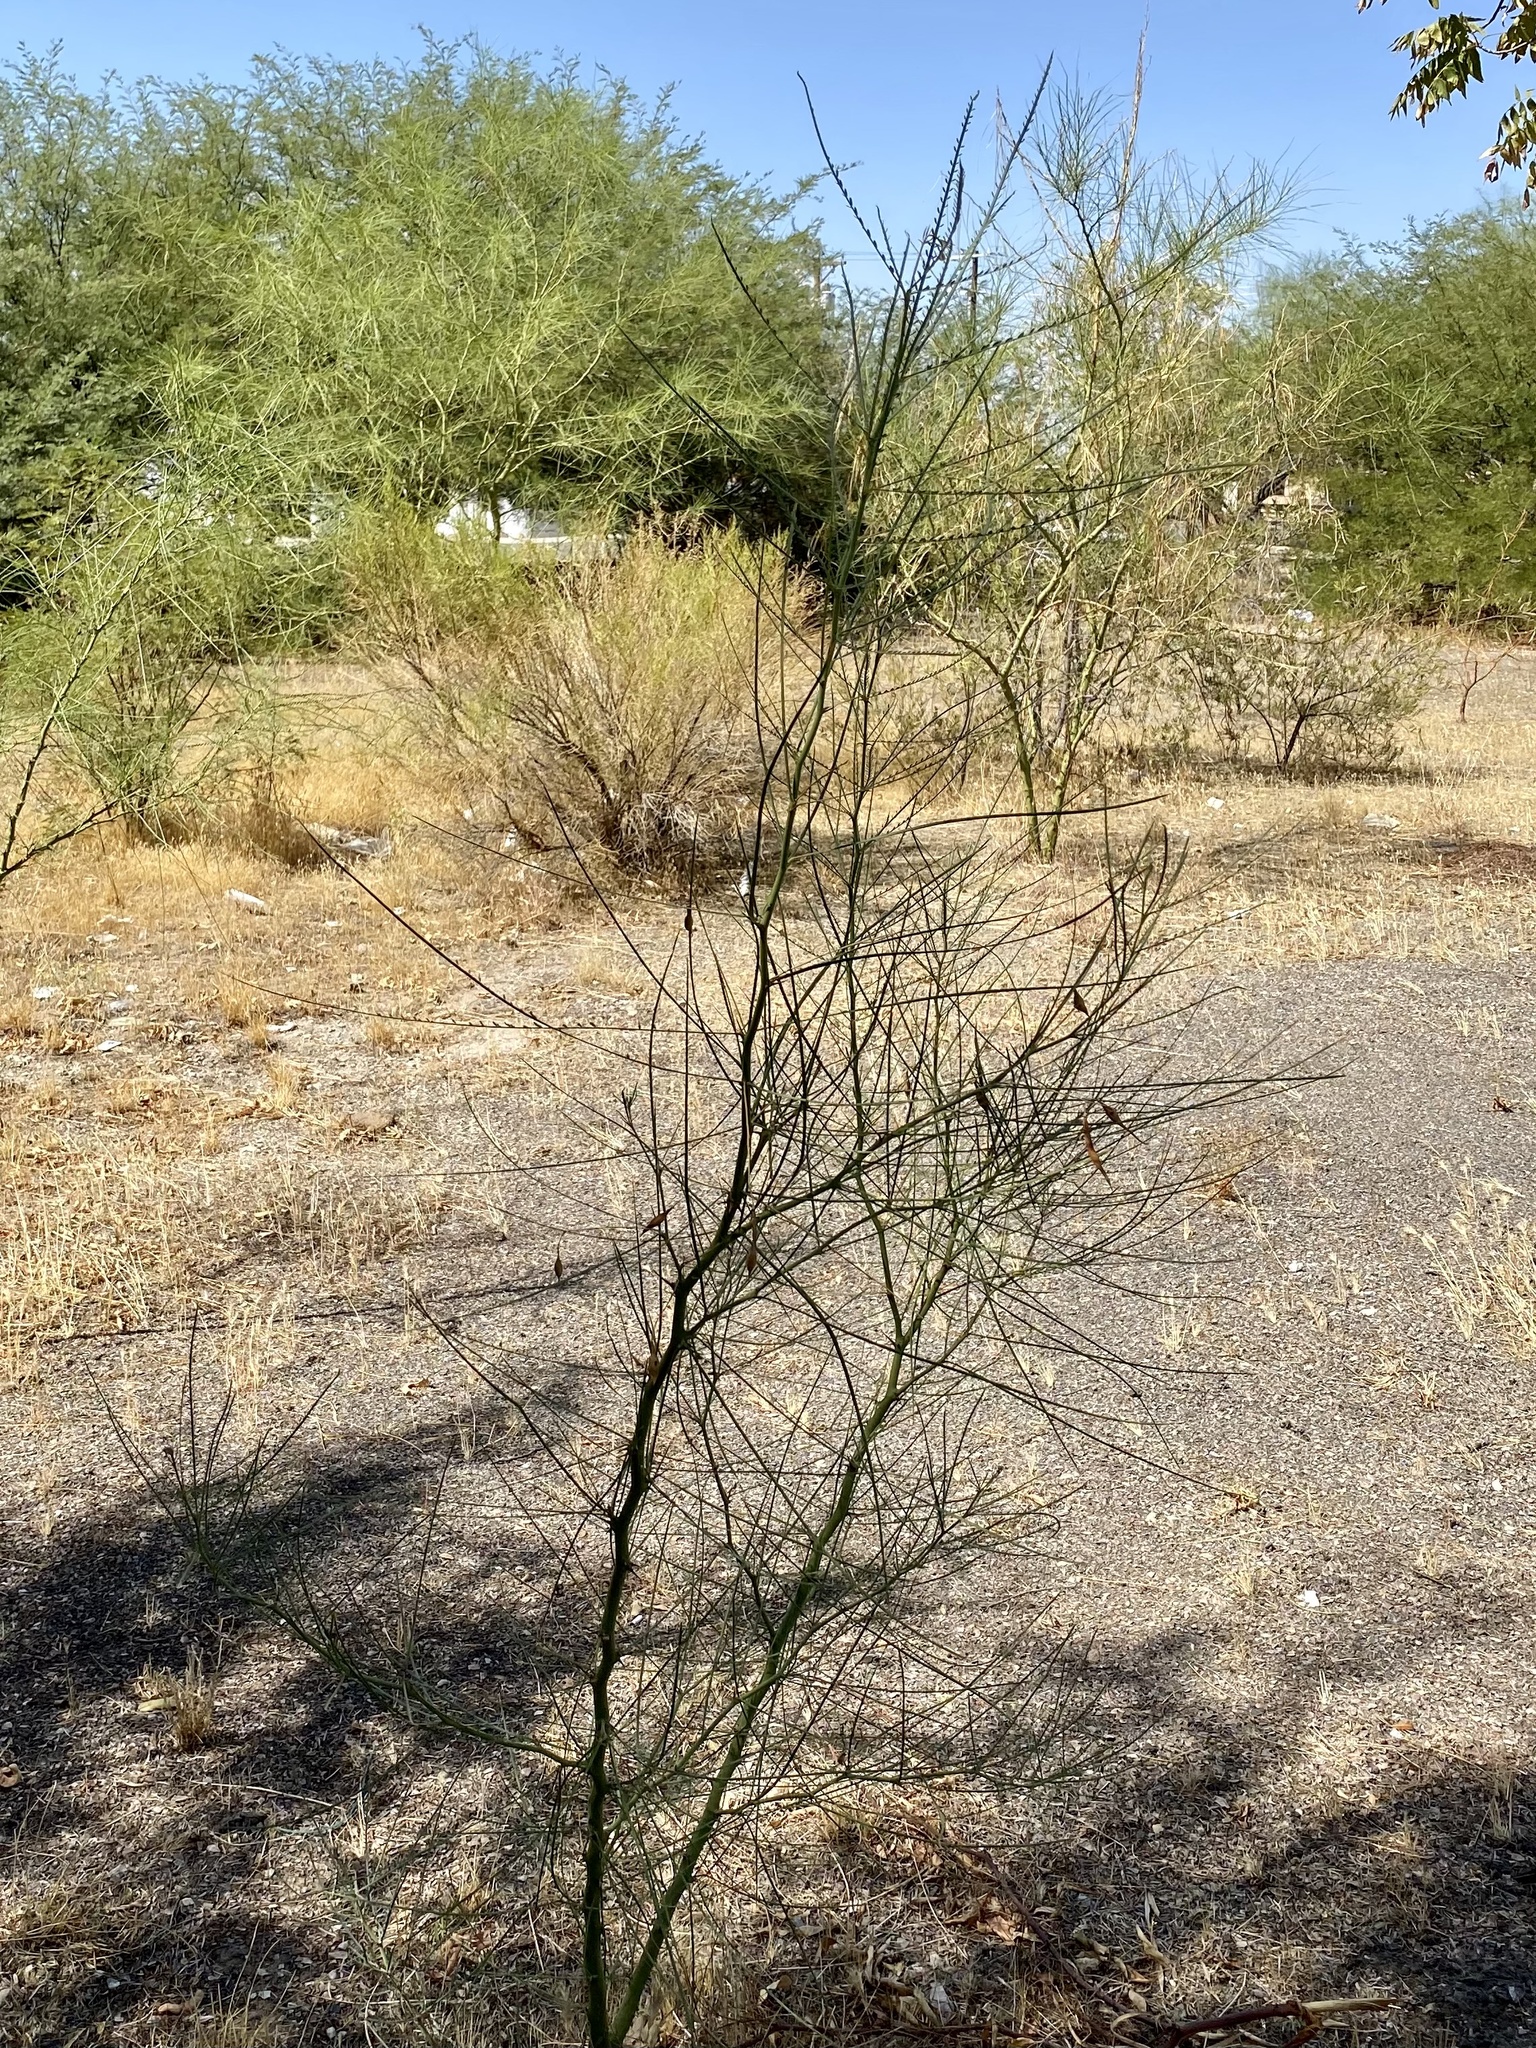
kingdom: Plantae
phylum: Tracheophyta
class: Magnoliopsida
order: Fabales
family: Fabaceae
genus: Parkinsonia
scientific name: Parkinsonia aculeata
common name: Jerusalem thorn
